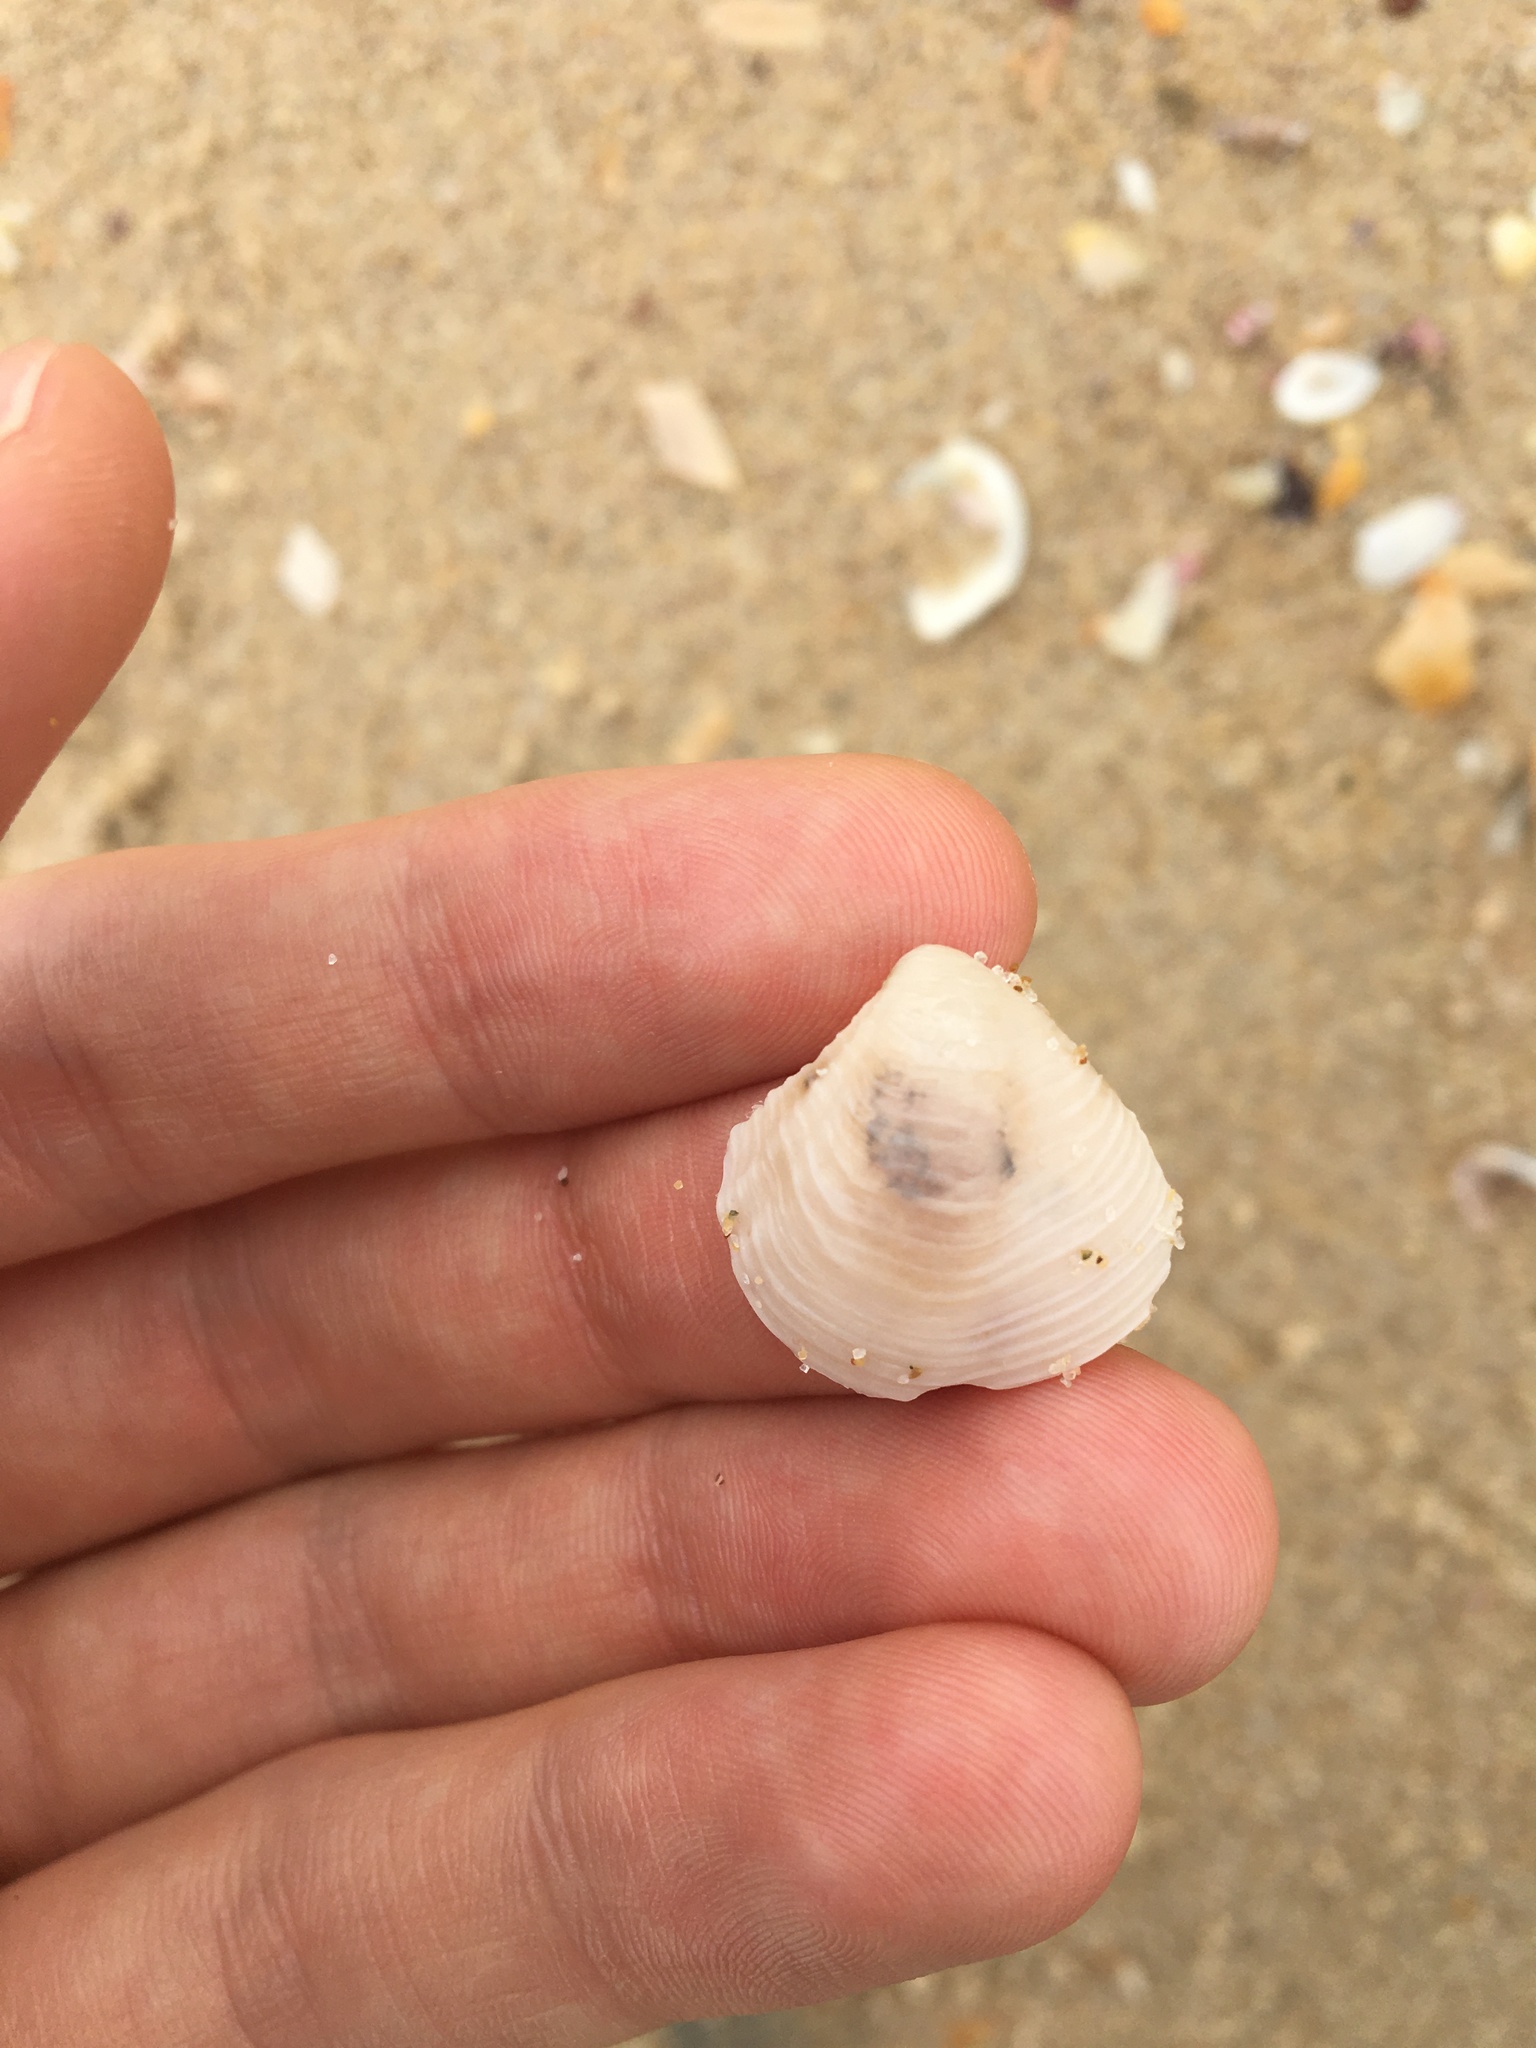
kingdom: Animalia
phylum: Mollusca
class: Bivalvia
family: Myochamidae
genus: Myadora
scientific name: Myadora brevis
